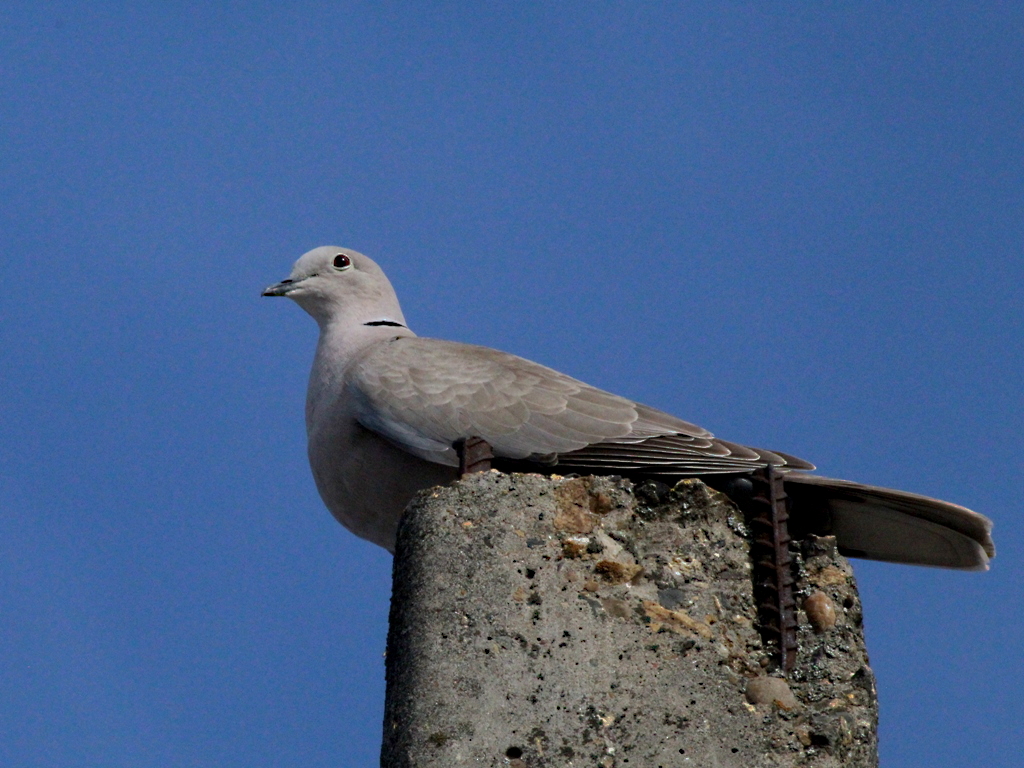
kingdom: Animalia
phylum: Chordata
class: Aves
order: Columbiformes
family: Columbidae
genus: Streptopelia
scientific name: Streptopelia decaocto
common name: Eurasian collared dove
